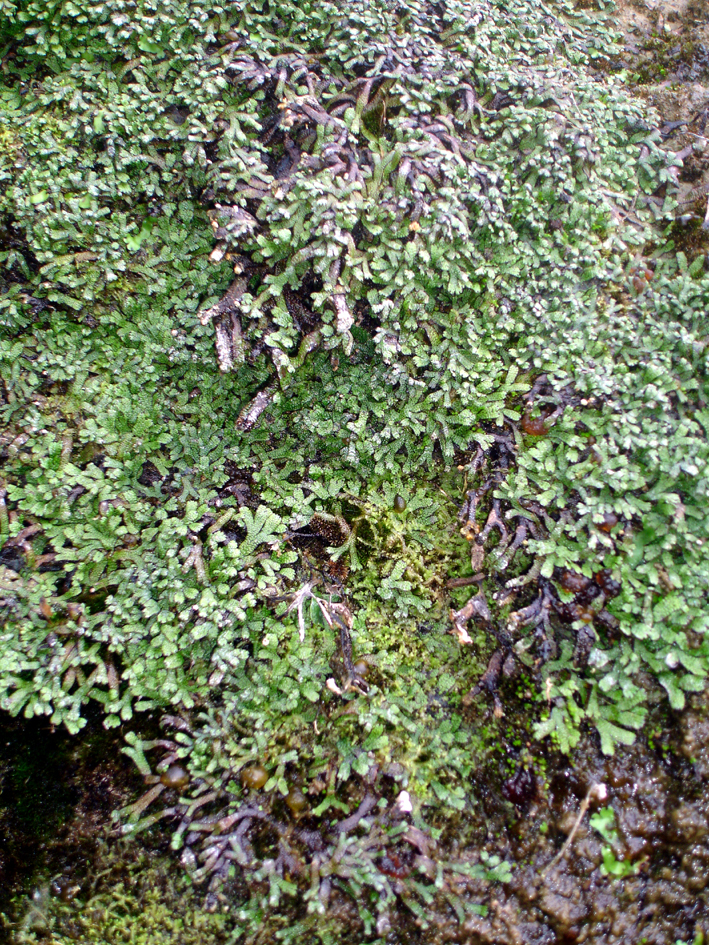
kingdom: Plantae
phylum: Marchantiophyta
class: Marchantiopsida
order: Marchantiales
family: Marchantiaceae
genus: Marchantia
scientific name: Marchantia macropora
